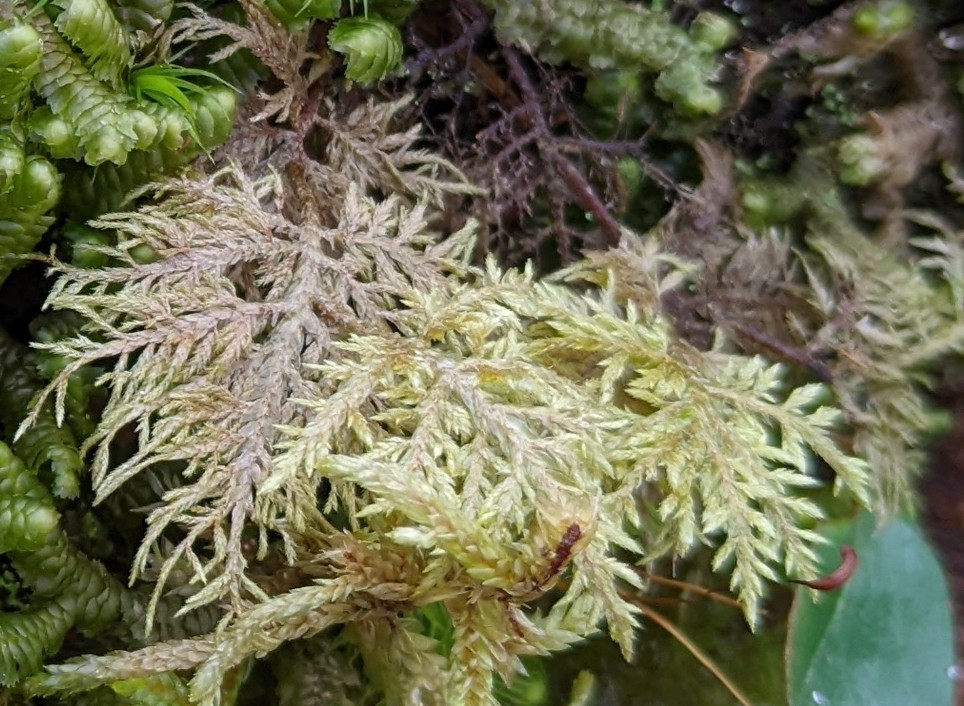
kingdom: Plantae
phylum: Bryophyta
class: Bryopsida
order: Hypnales
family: Hylocomiaceae
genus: Hylocomium
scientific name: Hylocomium splendens
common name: Stairstep moss
